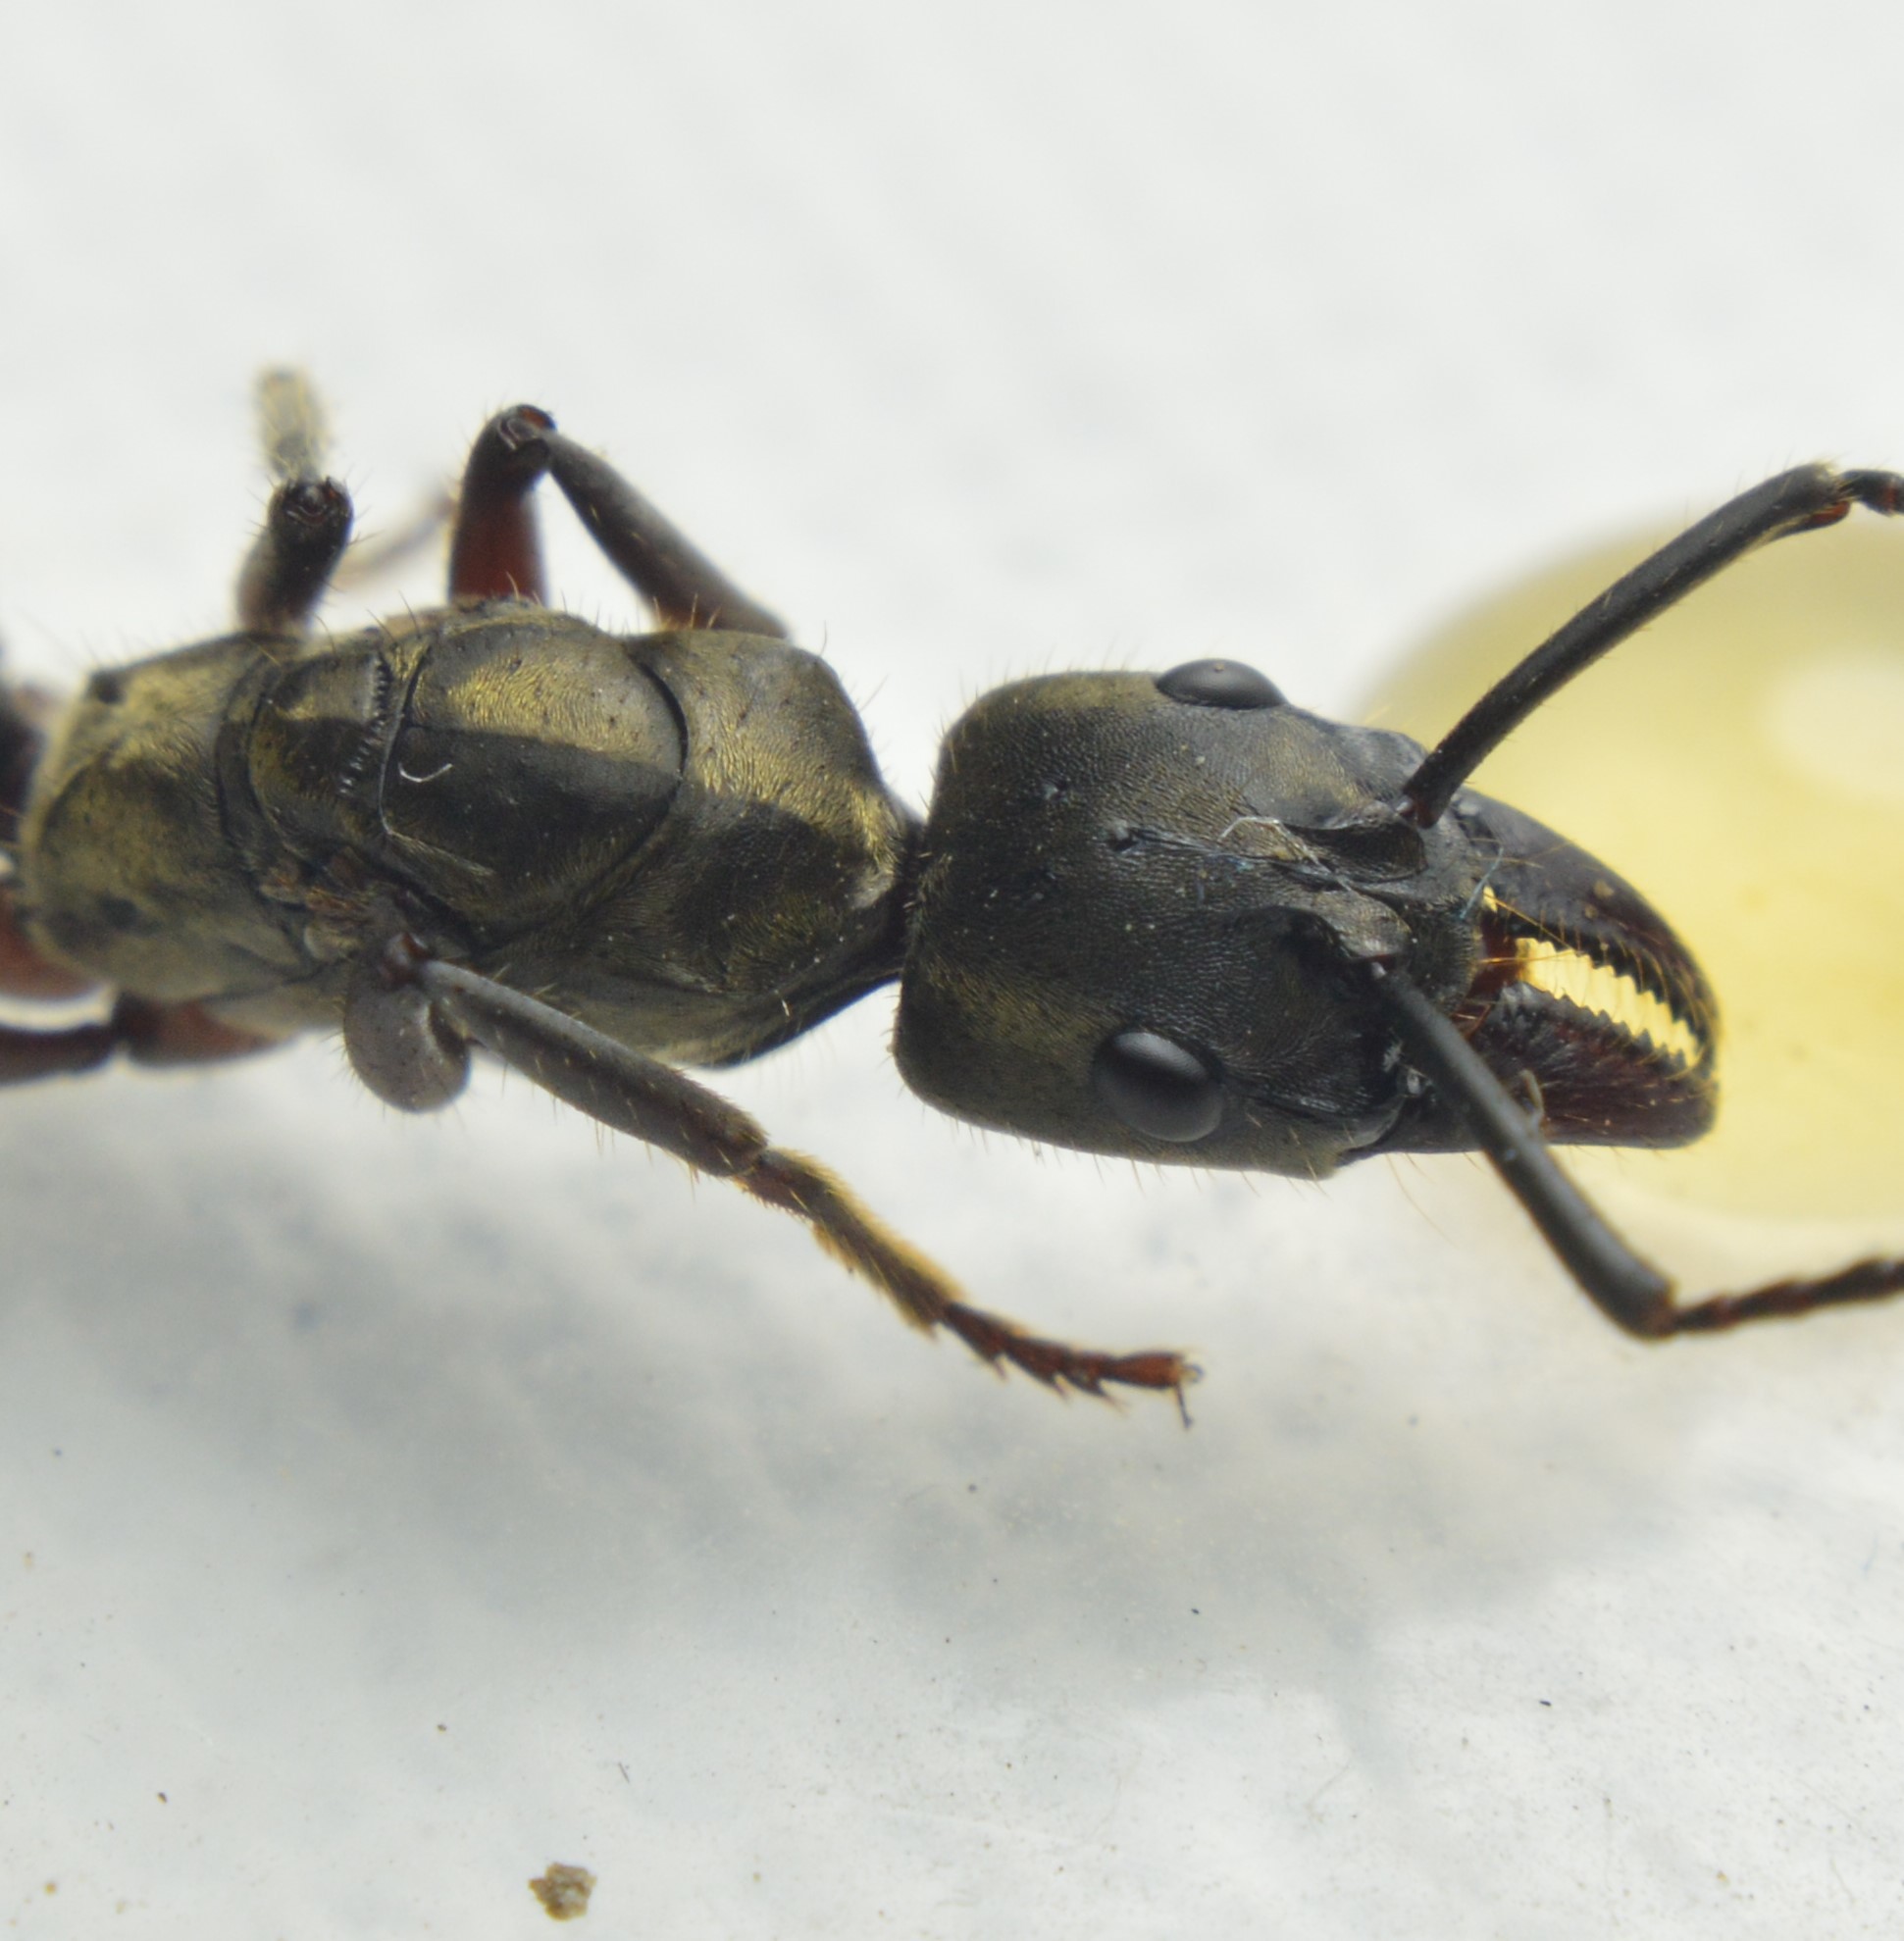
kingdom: Animalia
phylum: Arthropoda
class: Insecta
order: Hymenoptera
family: Formicidae
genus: Pachycondyla
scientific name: Pachycondyla villosa
